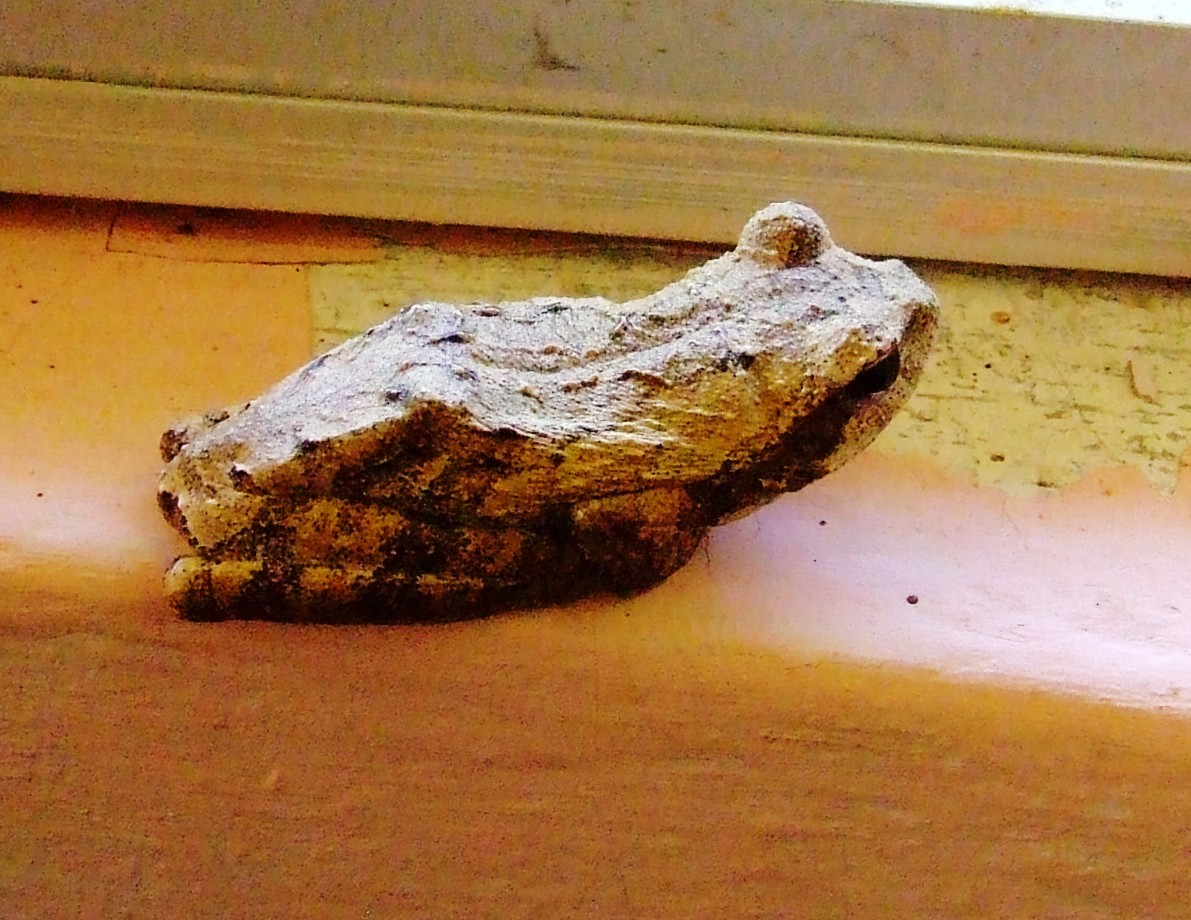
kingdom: Animalia
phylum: Chordata
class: Amphibia
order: Anura
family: Rhacophoridae
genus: Chiromantis
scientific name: Chiromantis xerampelina
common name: African gray treefrog
